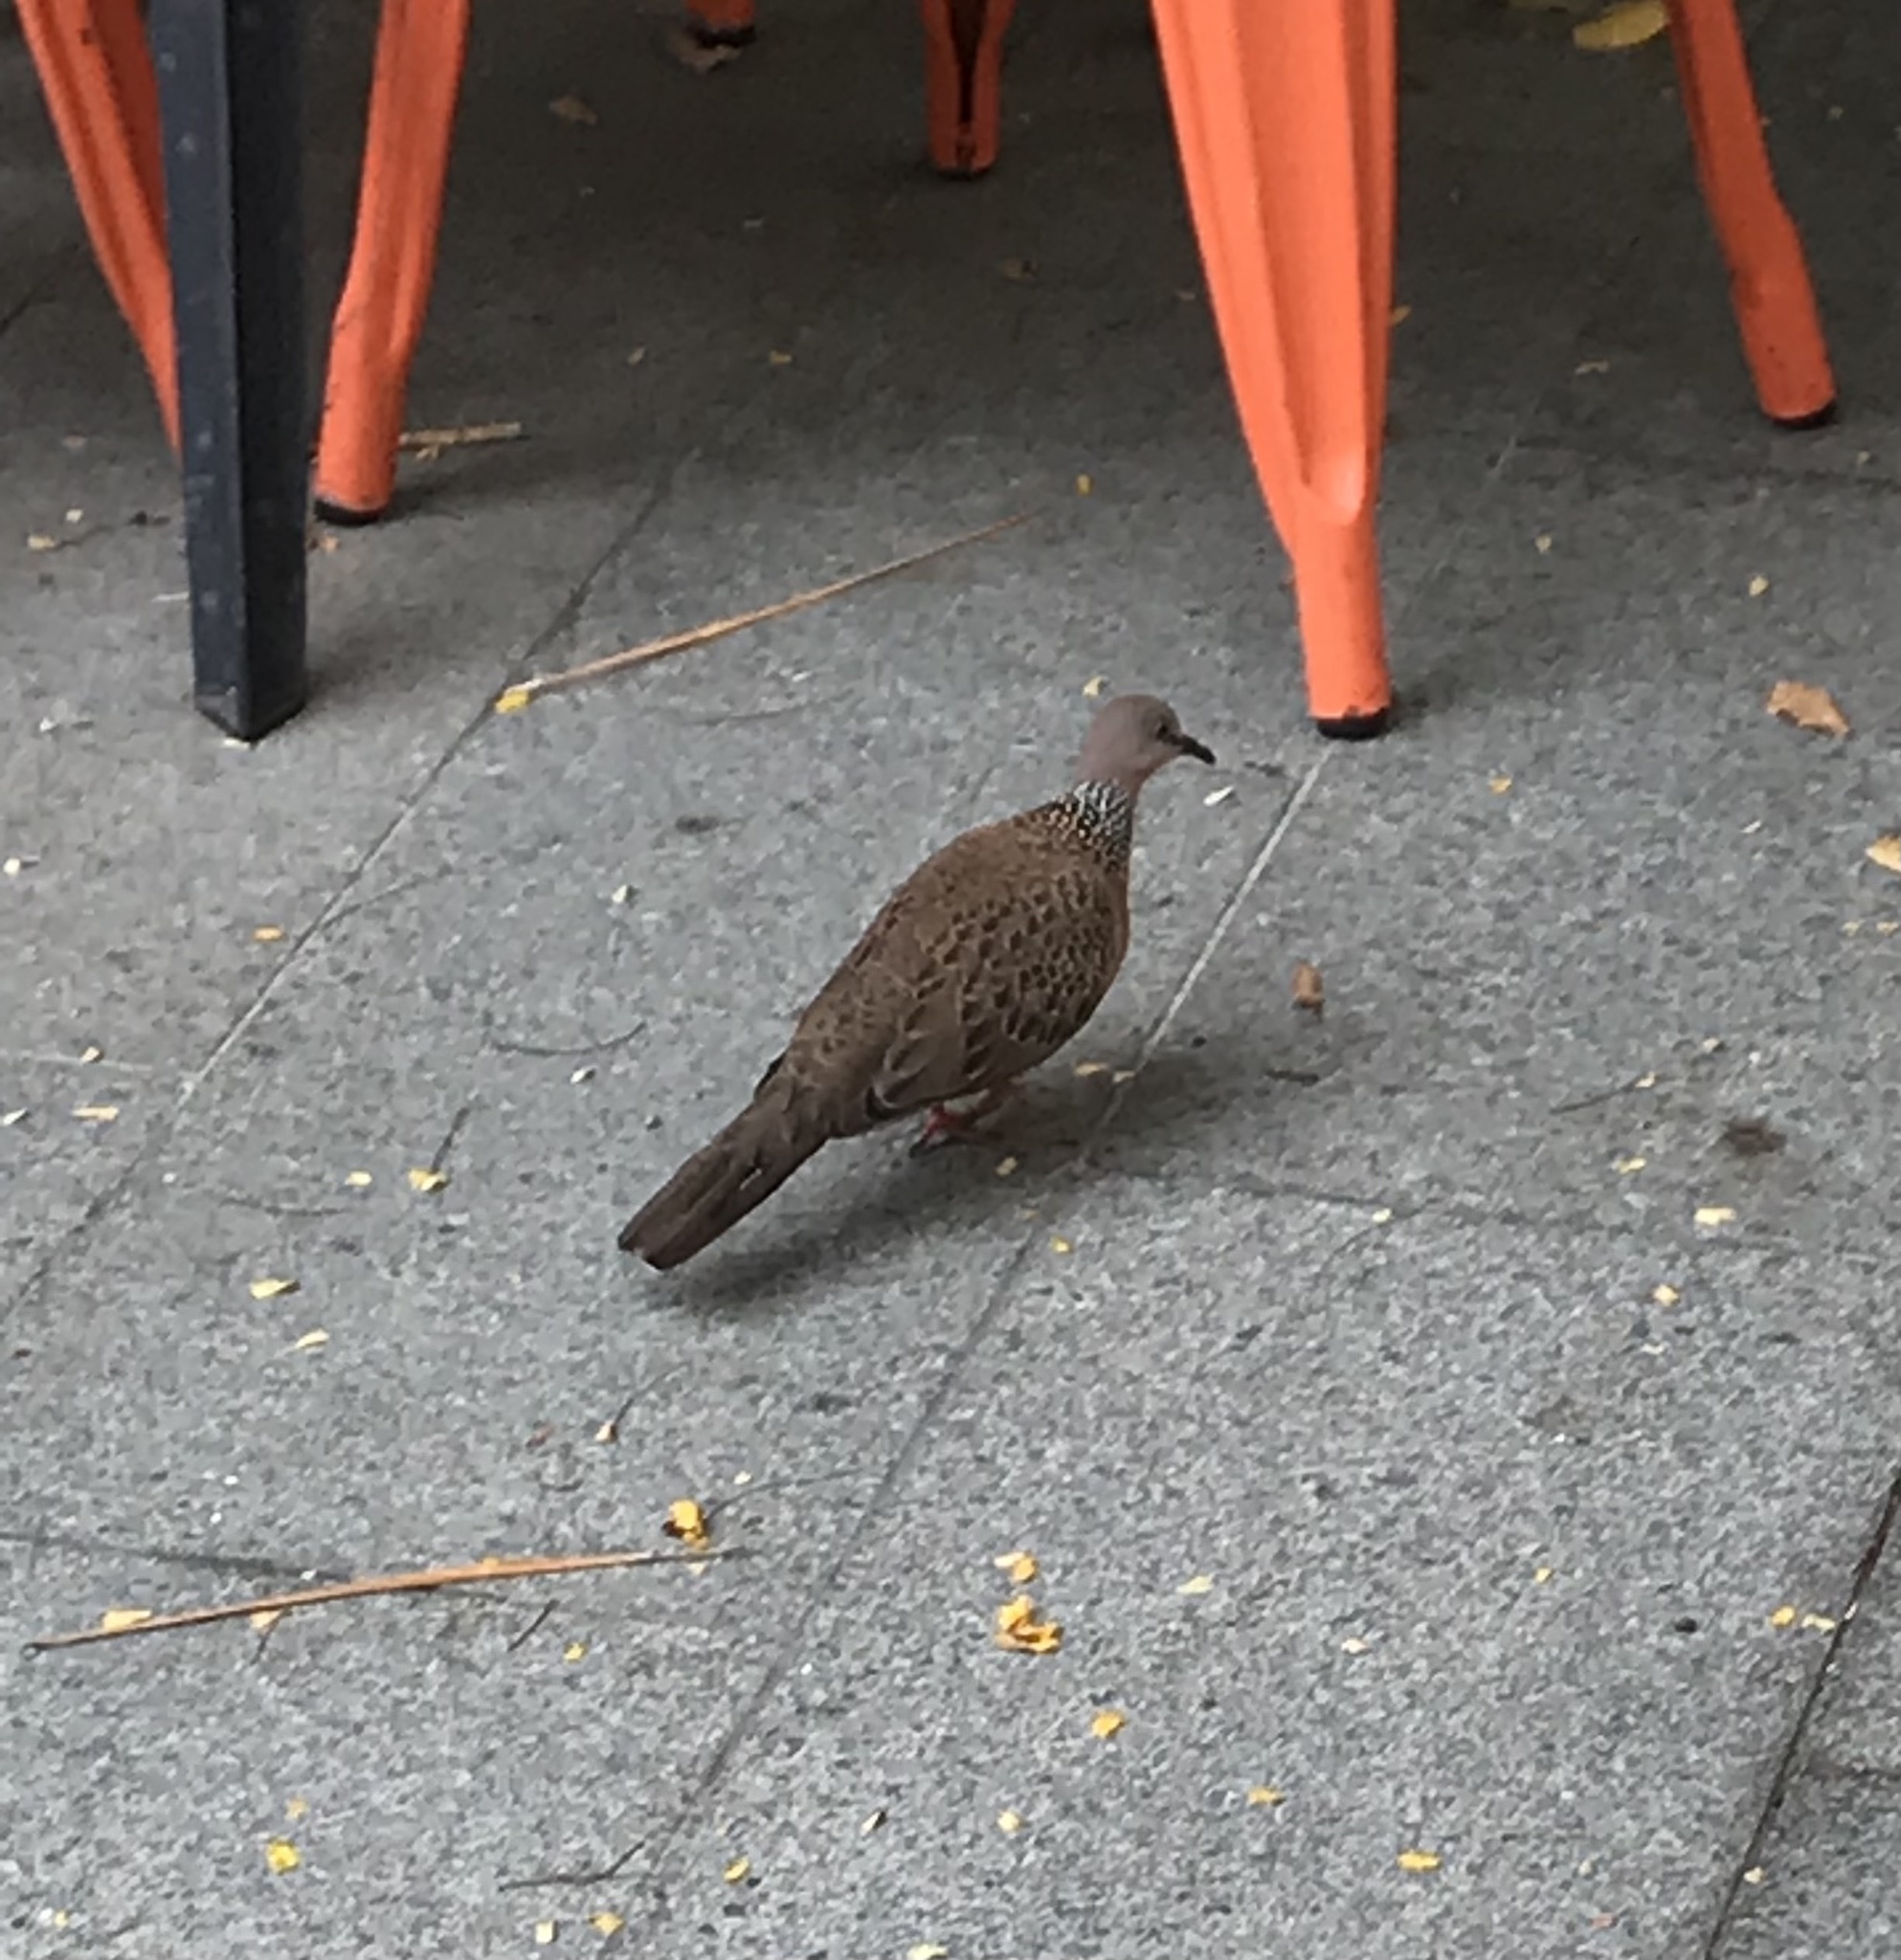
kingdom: Animalia
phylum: Chordata
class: Aves
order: Columbiformes
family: Columbidae
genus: Spilopelia
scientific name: Spilopelia chinensis
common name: Spotted dove
